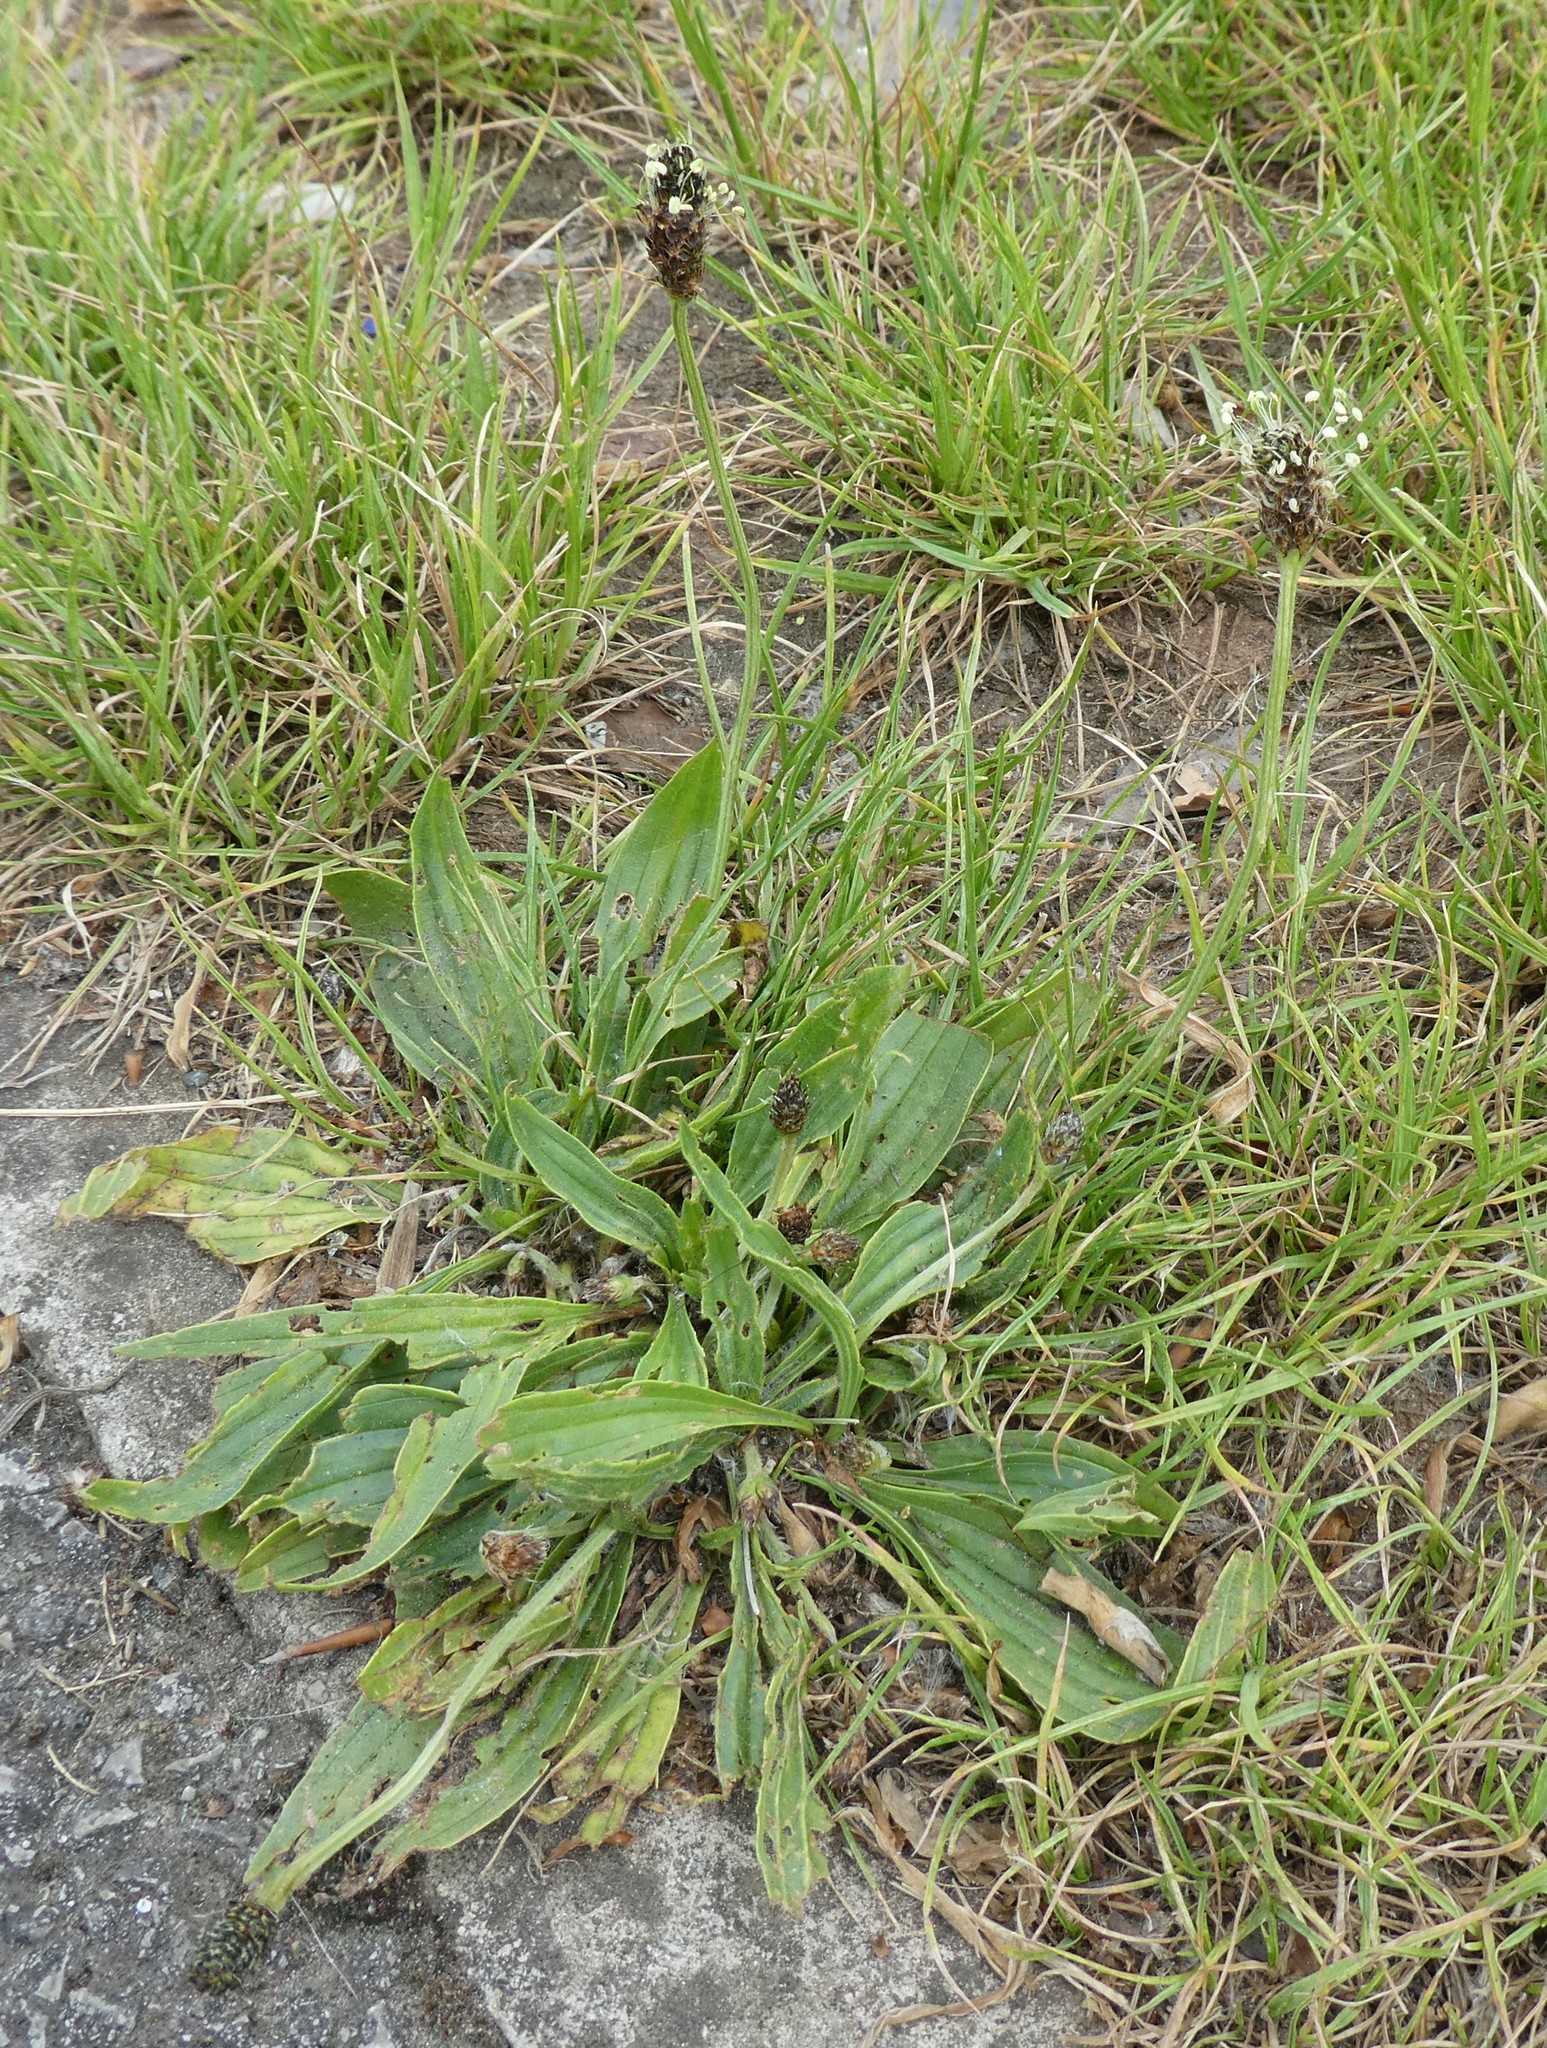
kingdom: Plantae
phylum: Tracheophyta
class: Magnoliopsida
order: Lamiales
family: Plantaginaceae
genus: Plantago
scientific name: Plantago lanceolata
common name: Ribwort plantain
